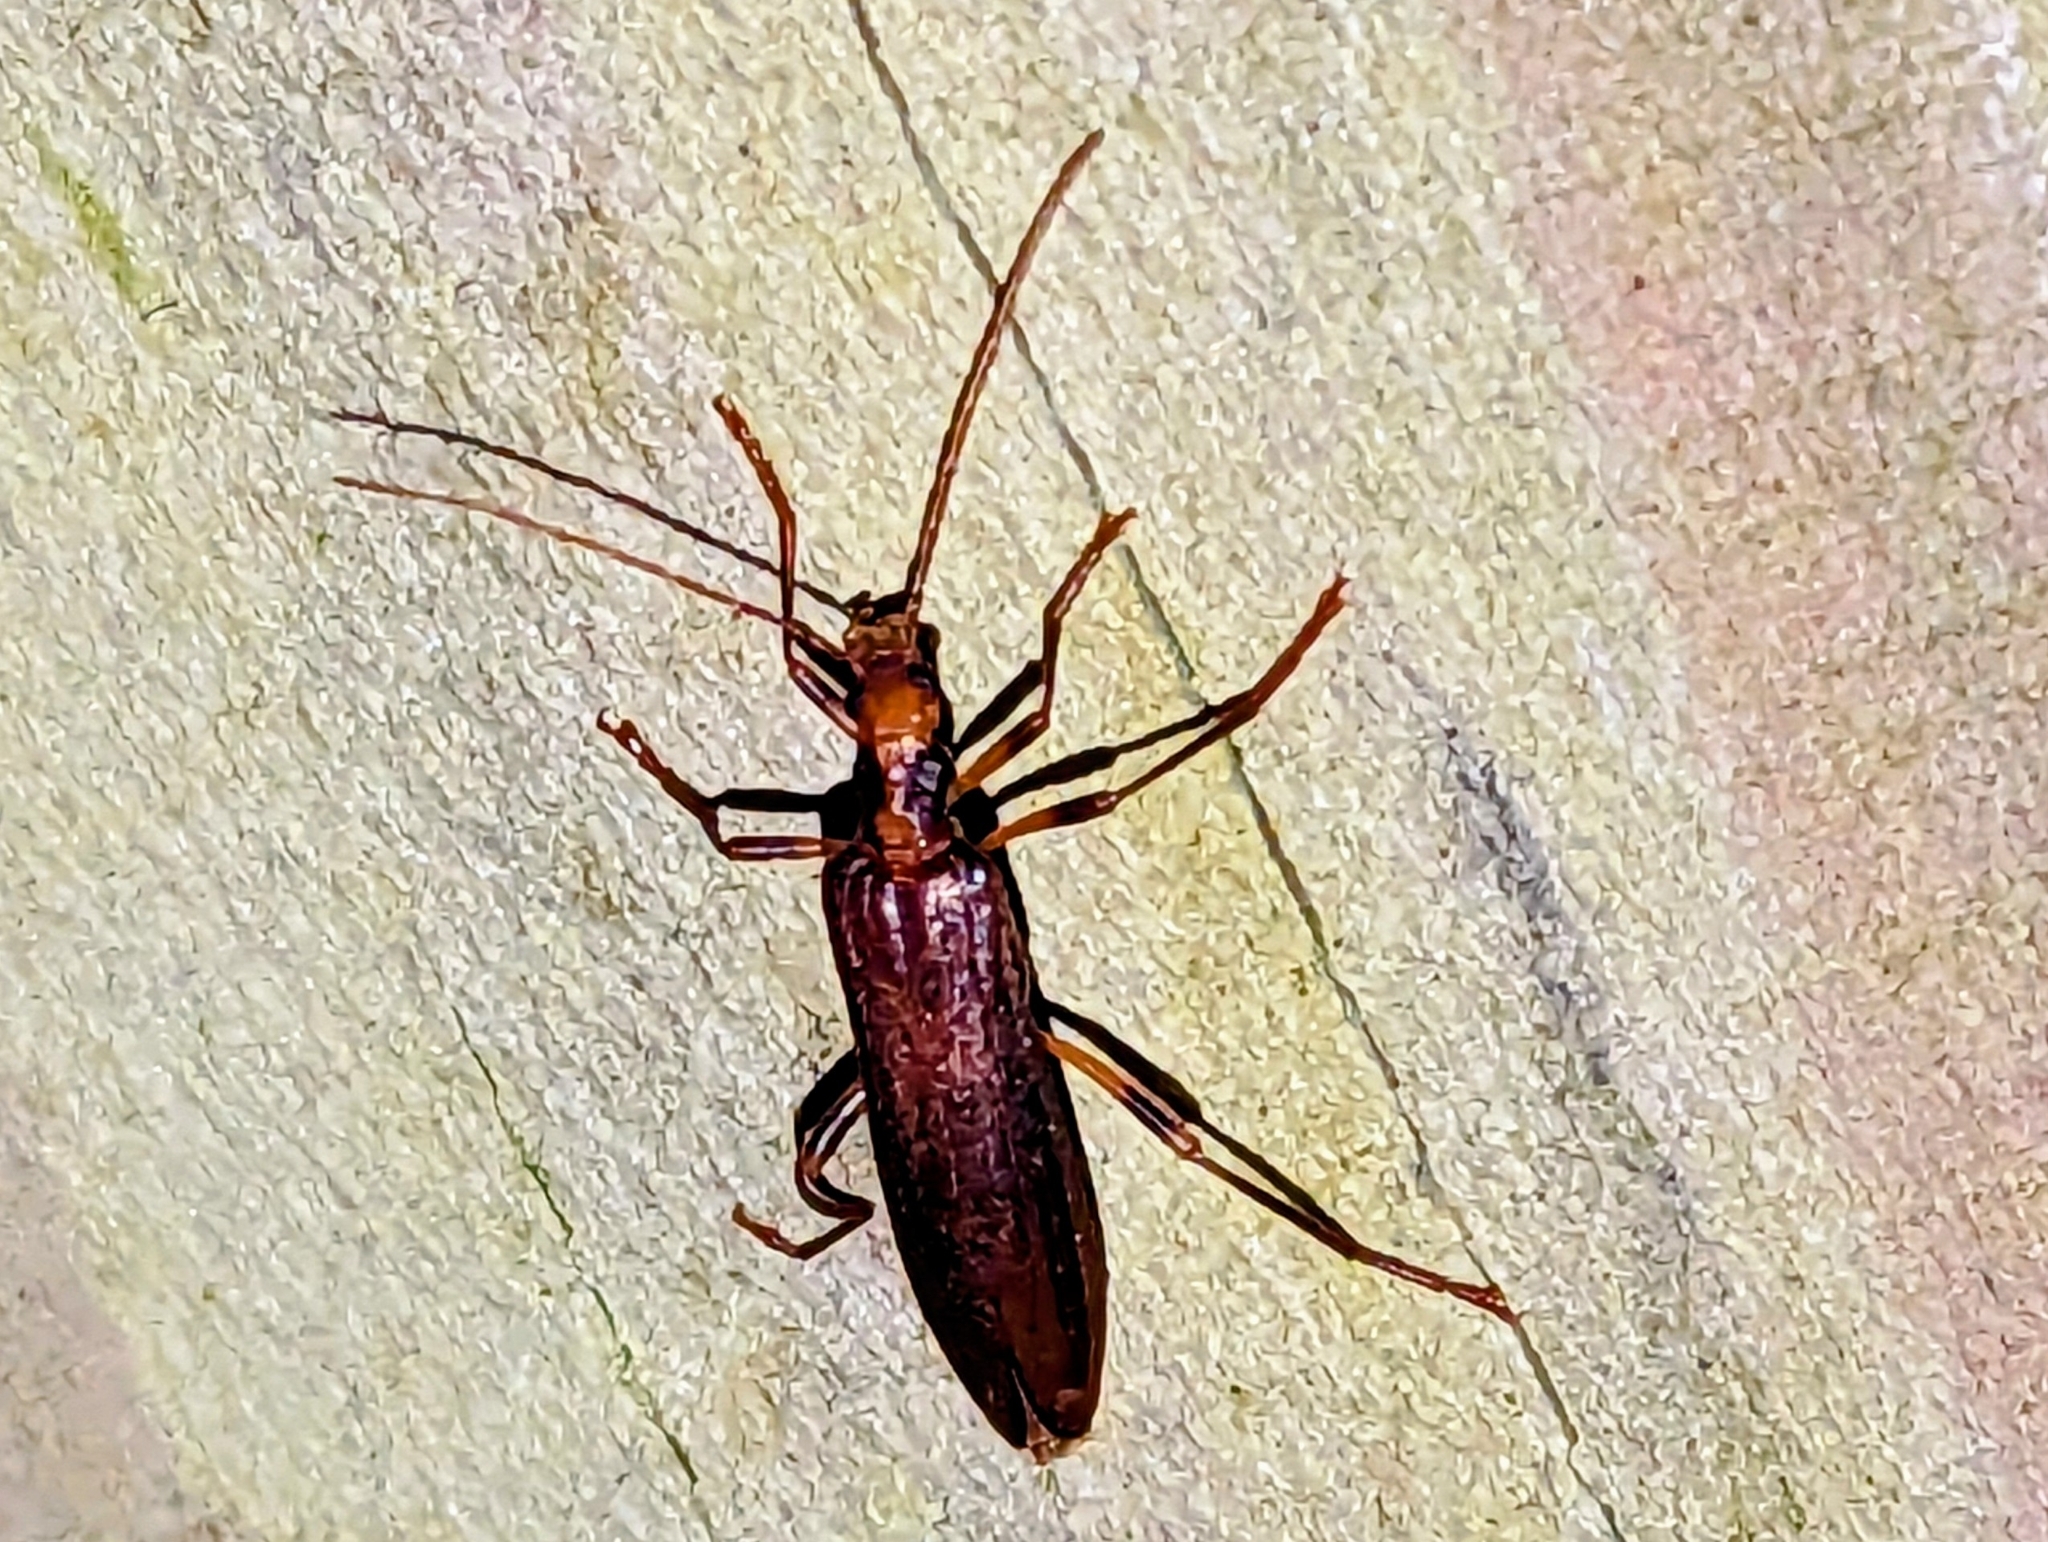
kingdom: Animalia
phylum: Arthropoda
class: Insecta
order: Coleoptera
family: Oedemeridae
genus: Oedemera
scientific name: Oedemera femoralis
